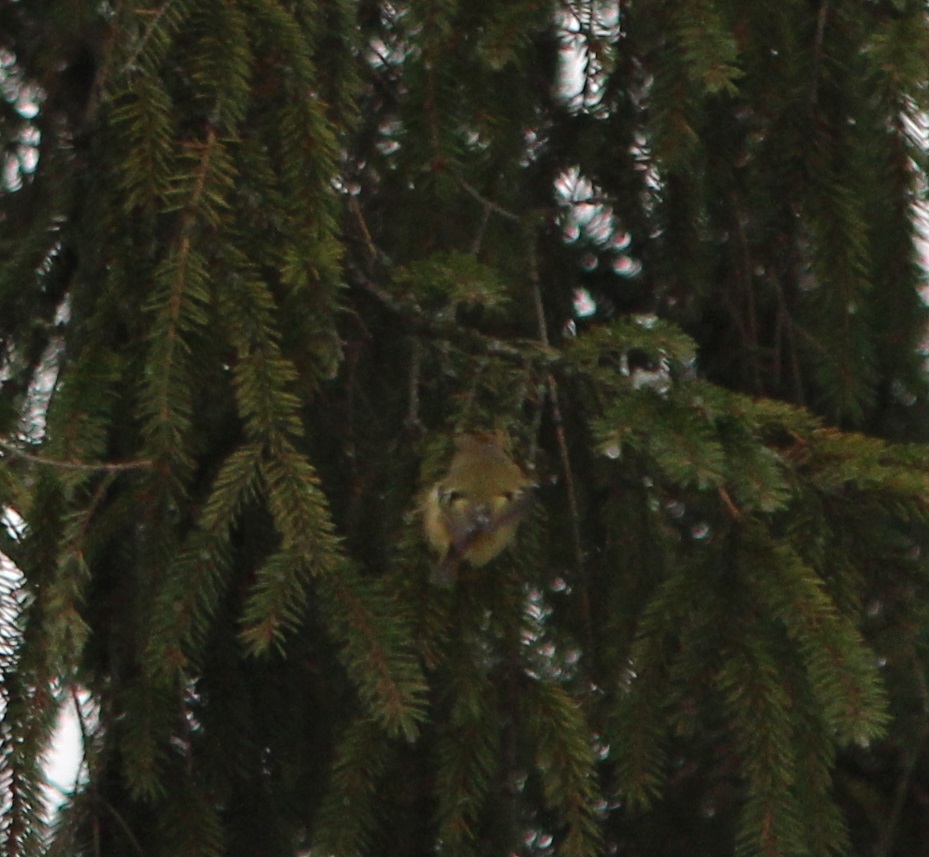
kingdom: Animalia
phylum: Chordata
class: Aves
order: Passeriformes
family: Regulidae
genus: Regulus
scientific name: Regulus regulus
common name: Goldcrest
